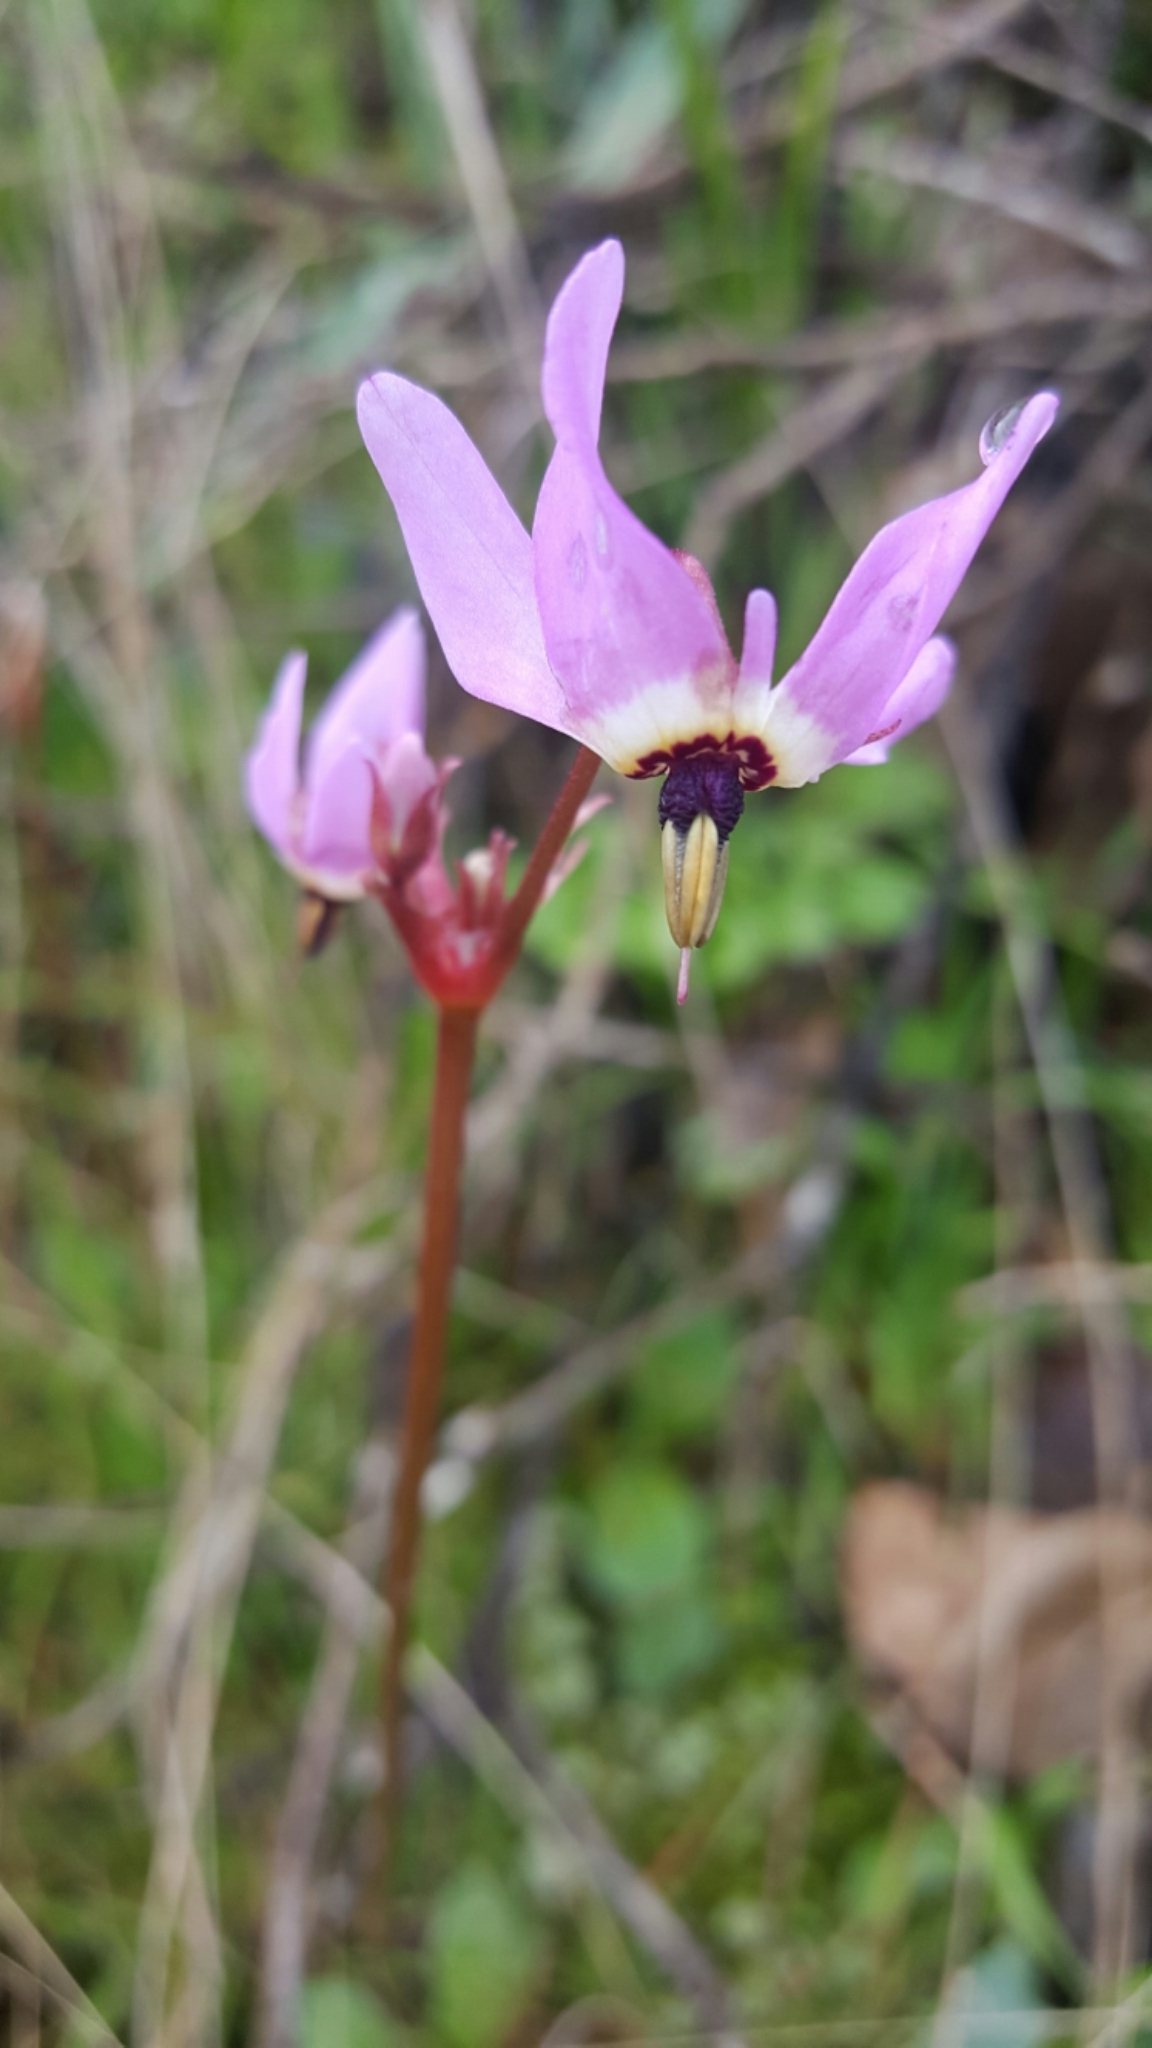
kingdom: Plantae
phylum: Tracheophyta
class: Magnoliopsida
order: Ericales
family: Primulaceae
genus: Dodecatheon
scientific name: Dodecatheon hendersonii
